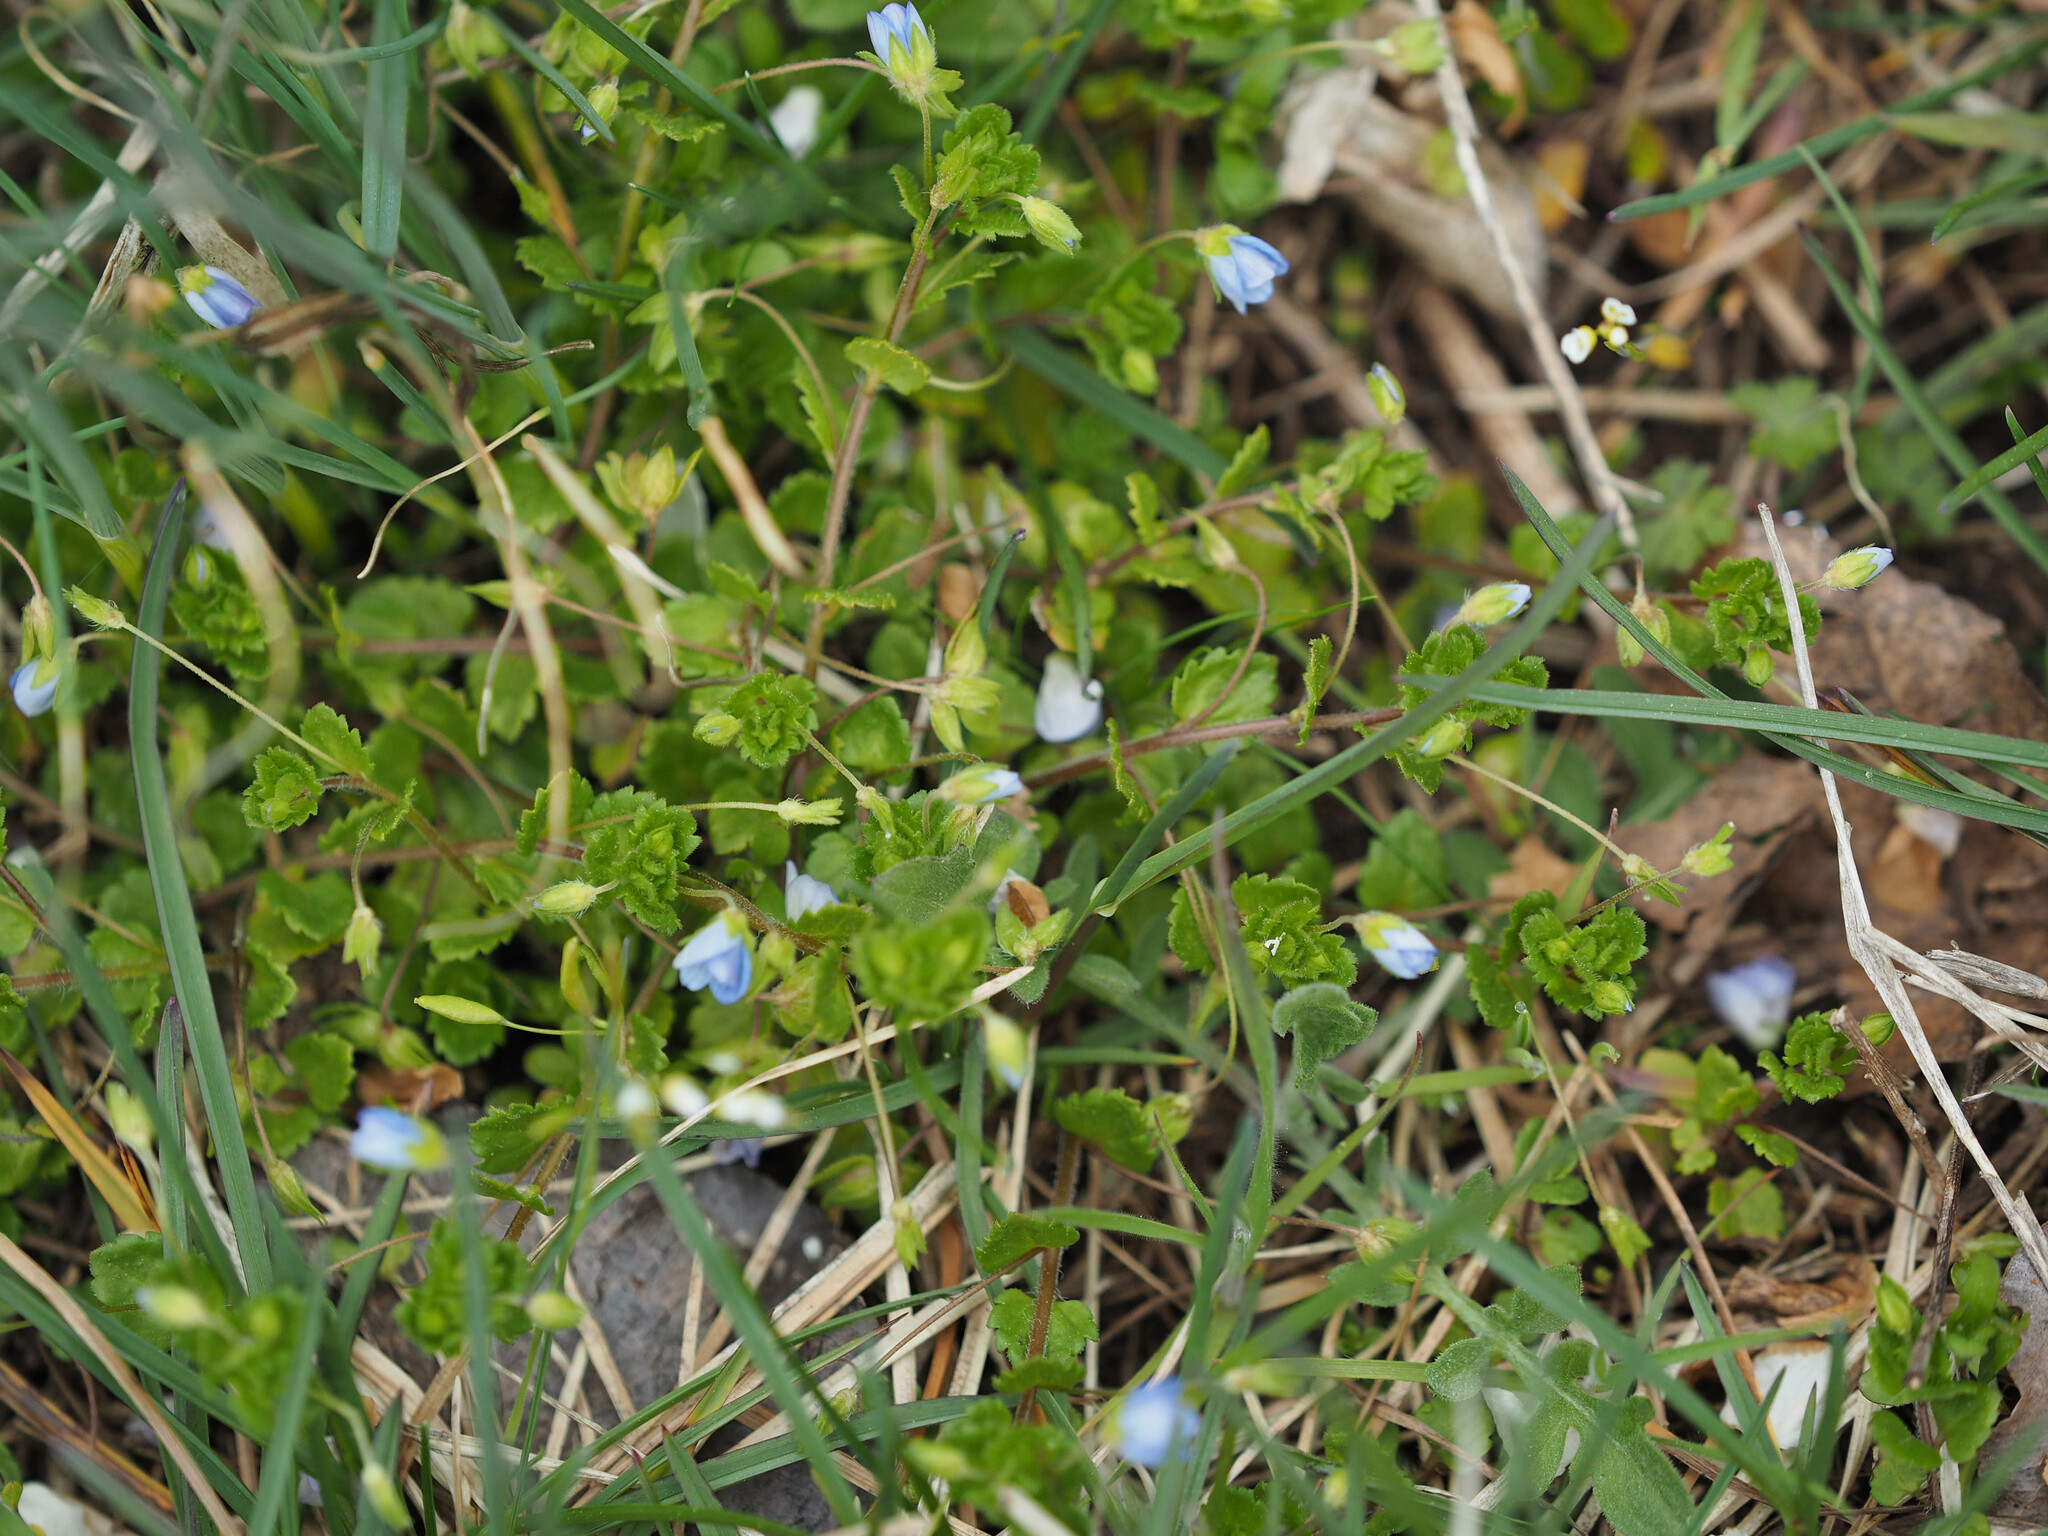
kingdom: Plantae
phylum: Tracheophyta
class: Magnoliopsida
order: Lamiales
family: Plantaginaceae
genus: Veronica
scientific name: Veronica persica
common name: Common field-speedwell
